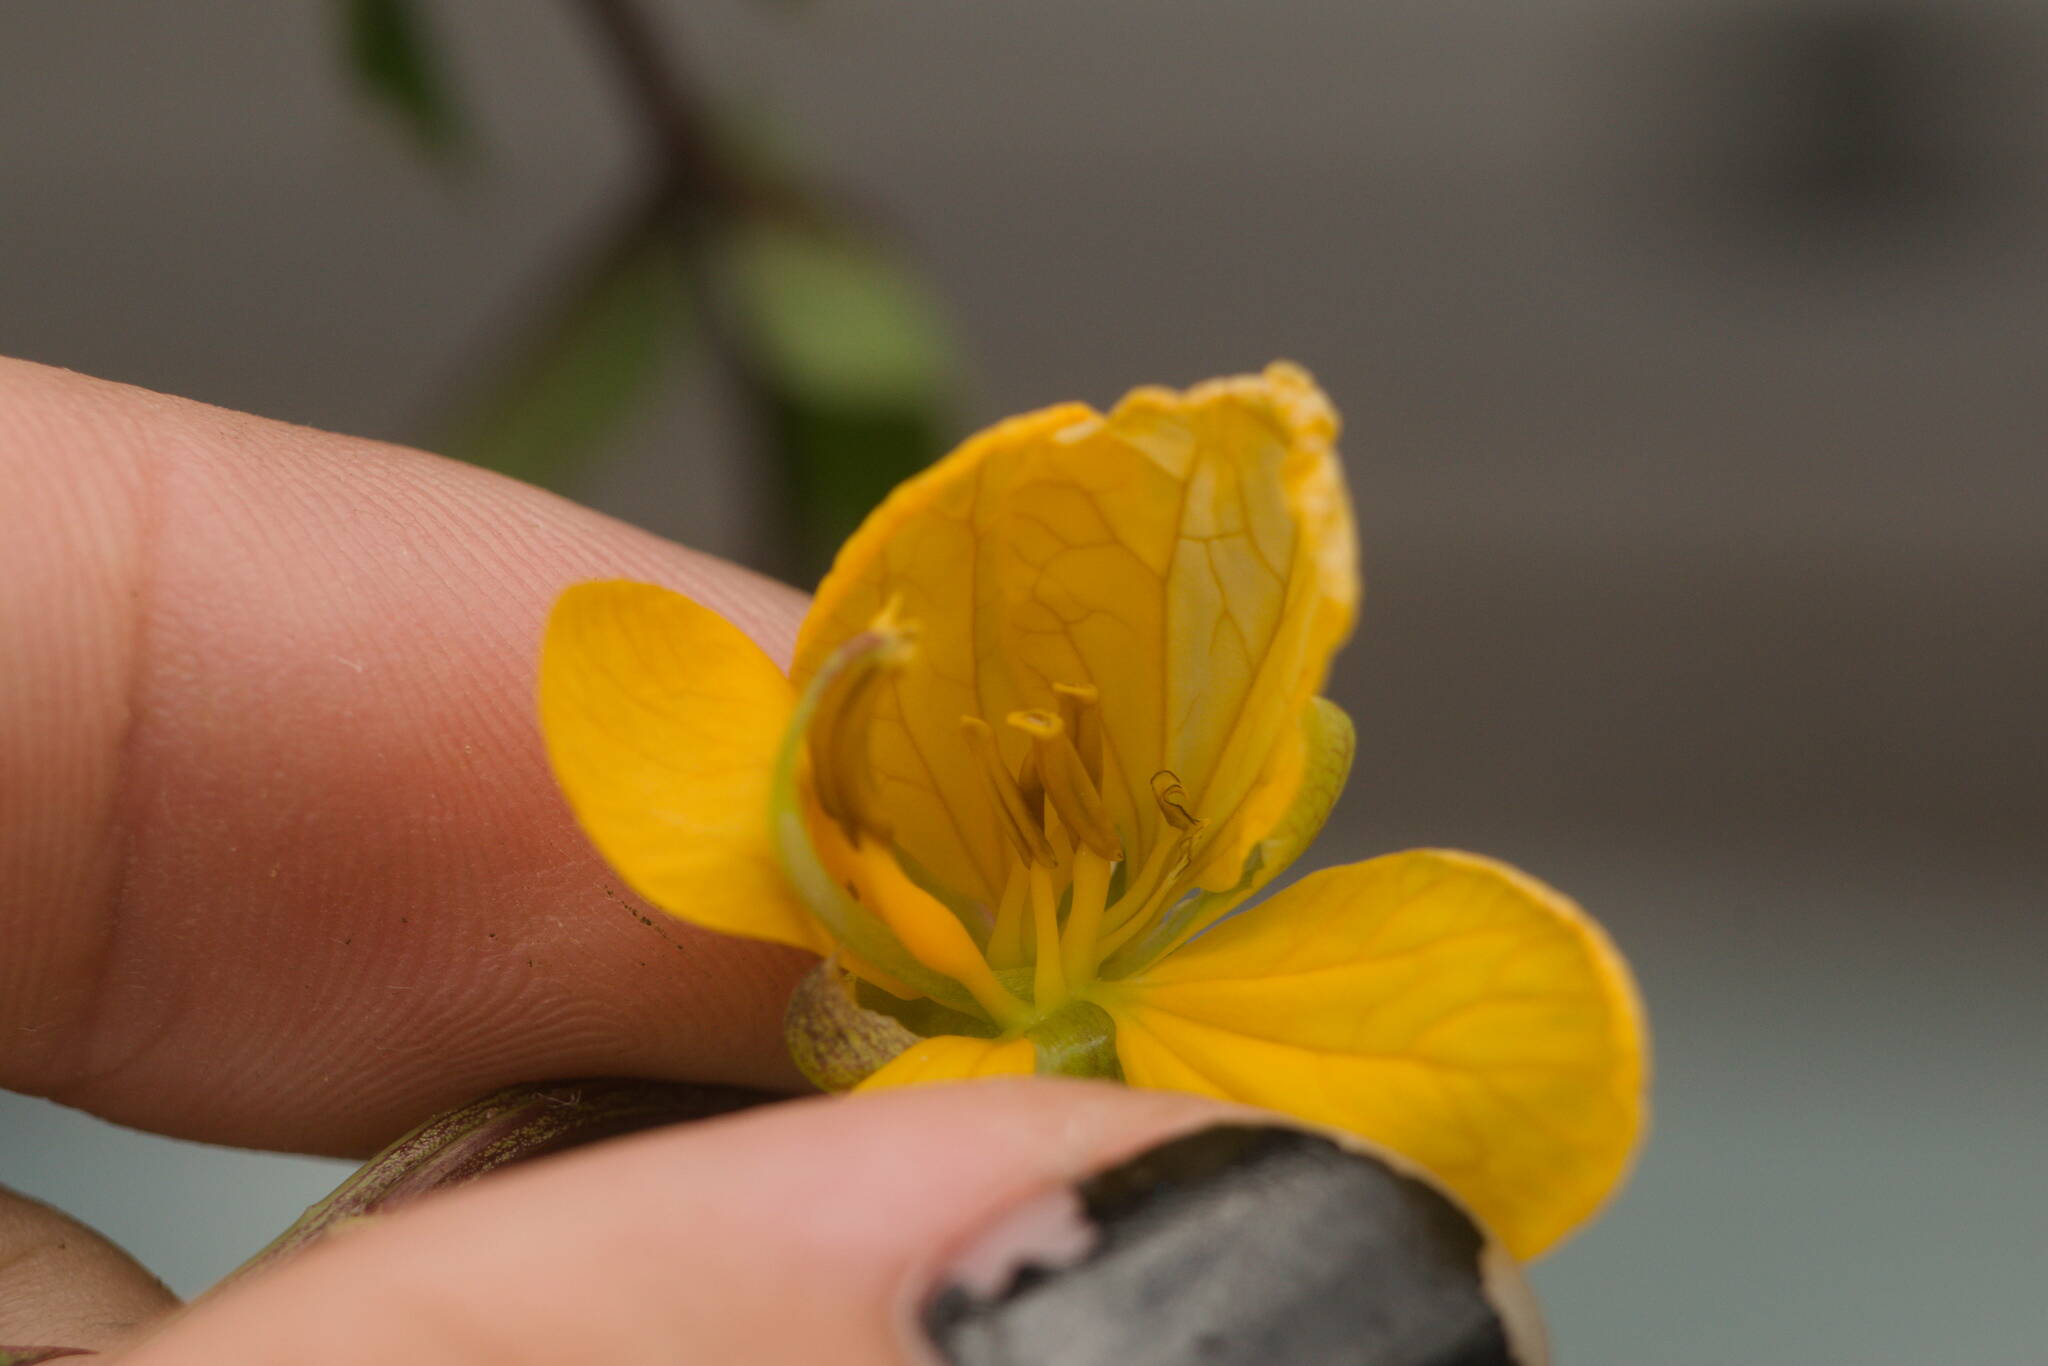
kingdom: Plantae
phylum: Tracheophyta
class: Magnoliopsida
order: Fabales
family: Fabaceae
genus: Senna
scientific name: Senna occidentalis
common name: Septicweed
